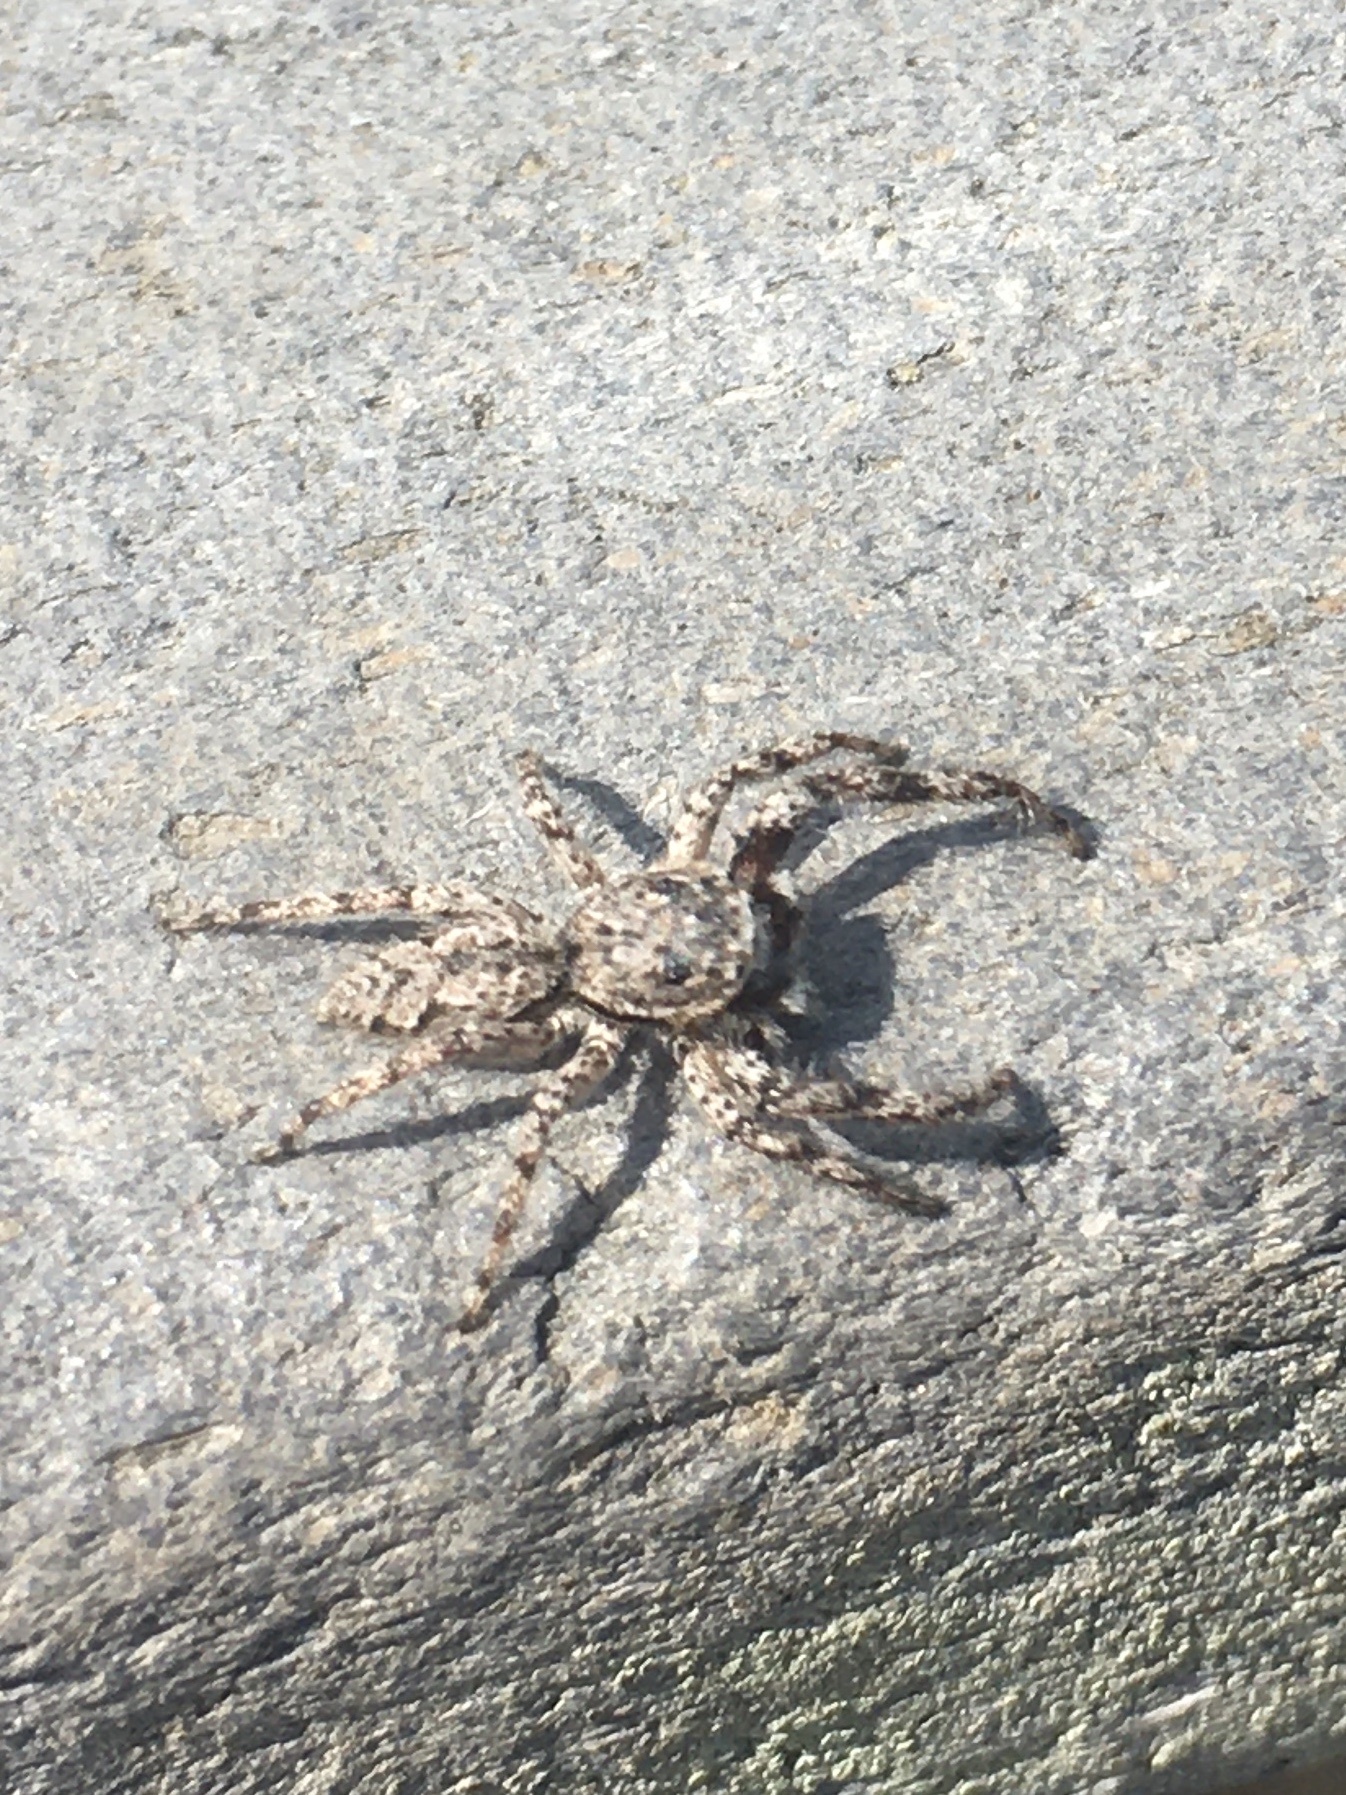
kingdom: Animalia
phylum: Arthropoda
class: Arachnida
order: Araneae
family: Salticidae
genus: Platycryptus
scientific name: Platycryptus undatus
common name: Tan jumping spider
